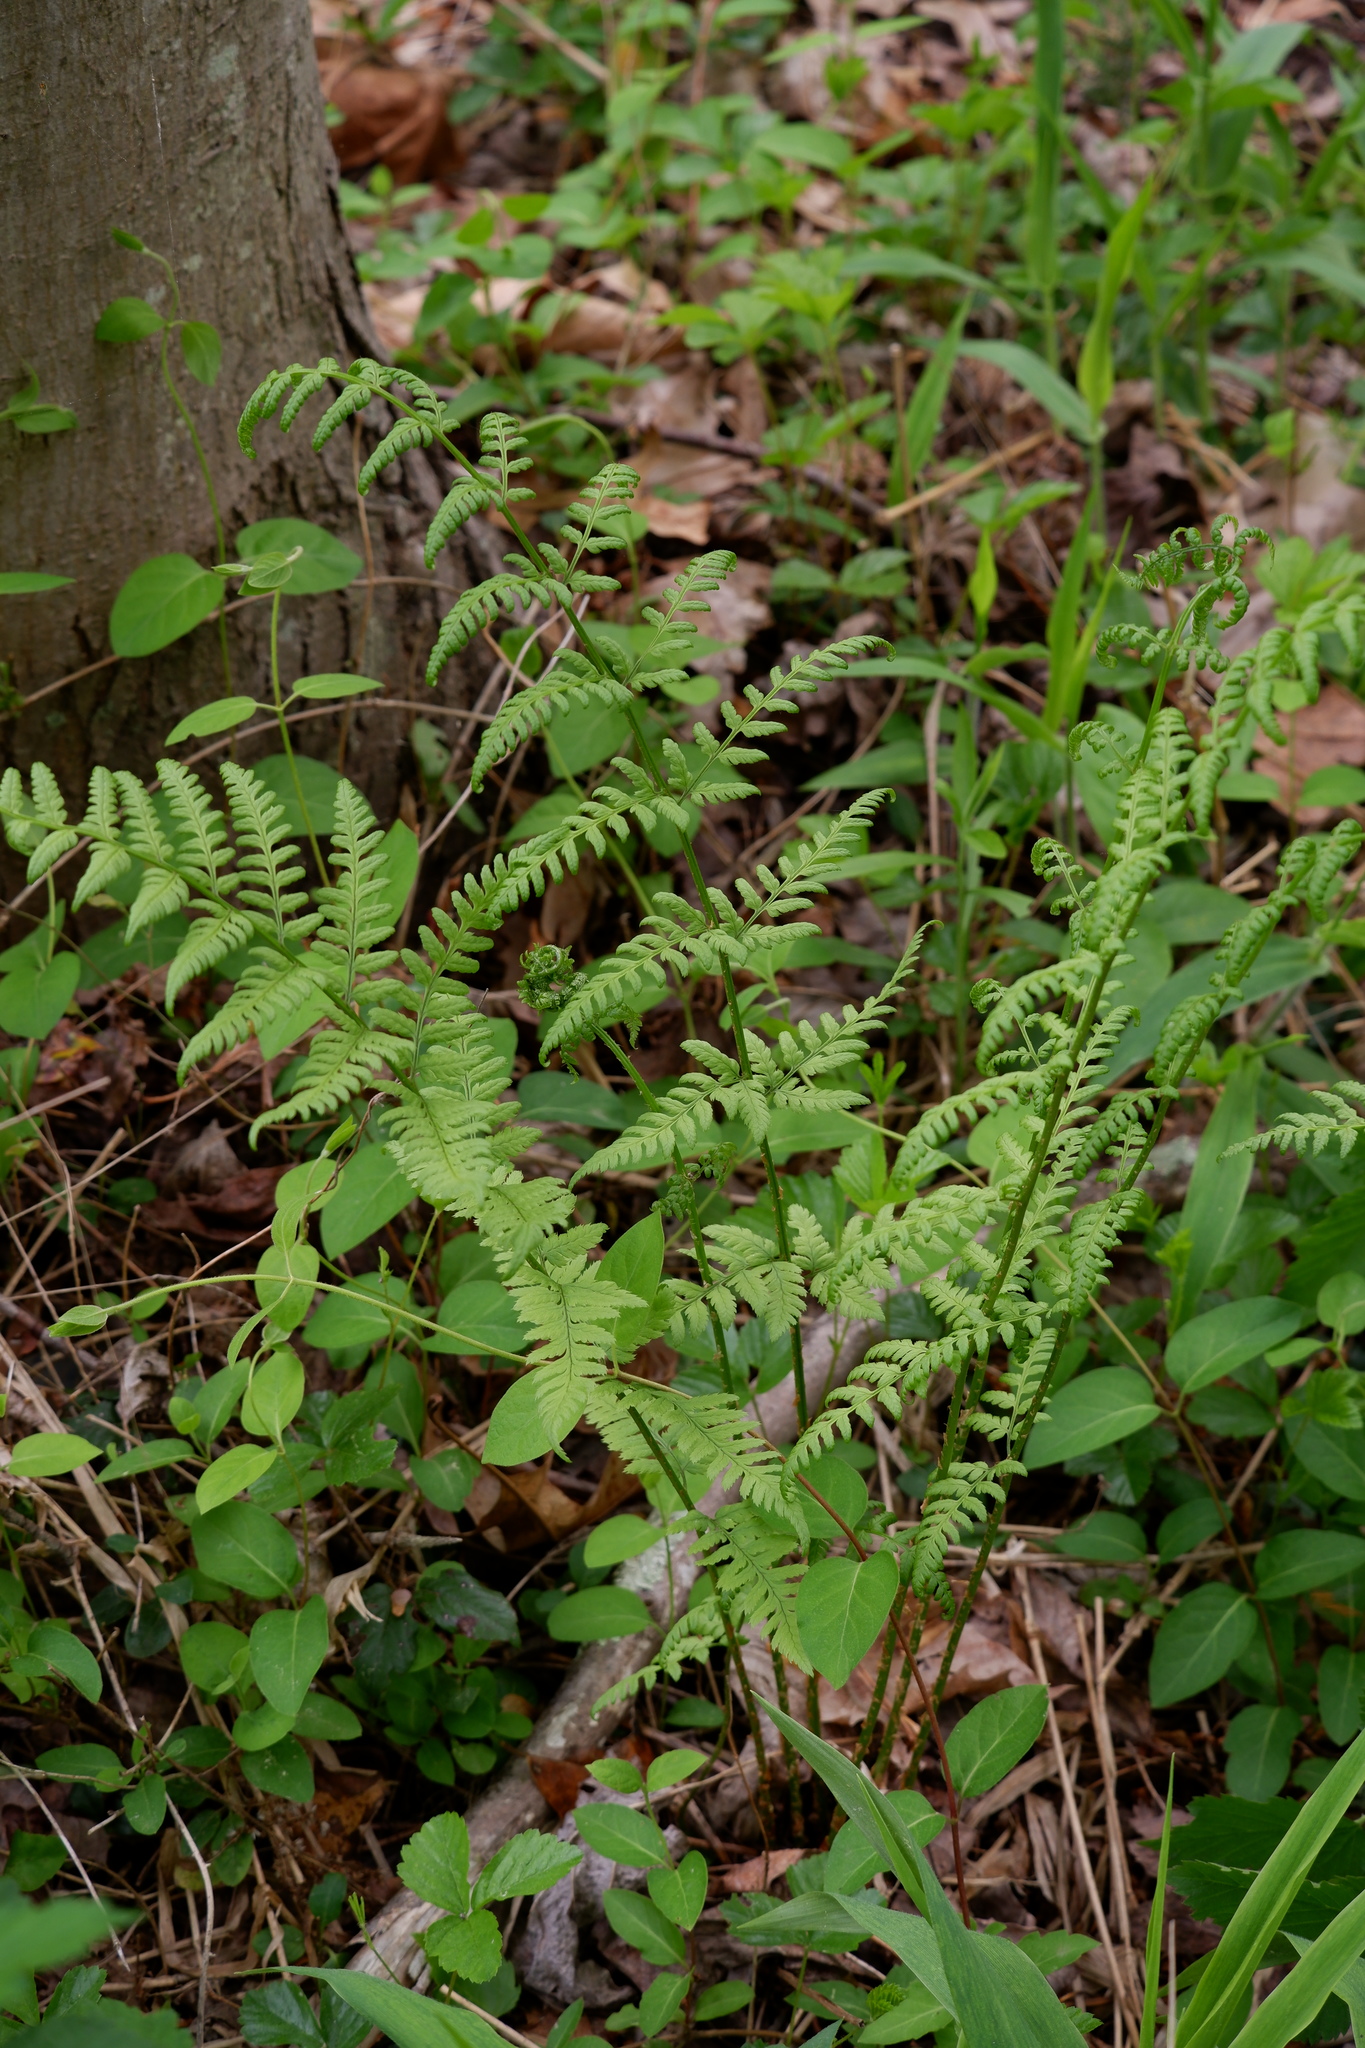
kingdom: Plantae
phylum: Tracheophyta
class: Polypodiopsida
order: Polypodiales
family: Dryopteridaceae
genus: Dryopteris
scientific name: Dryopteris carthusiana
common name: Narrow buckler-fern
